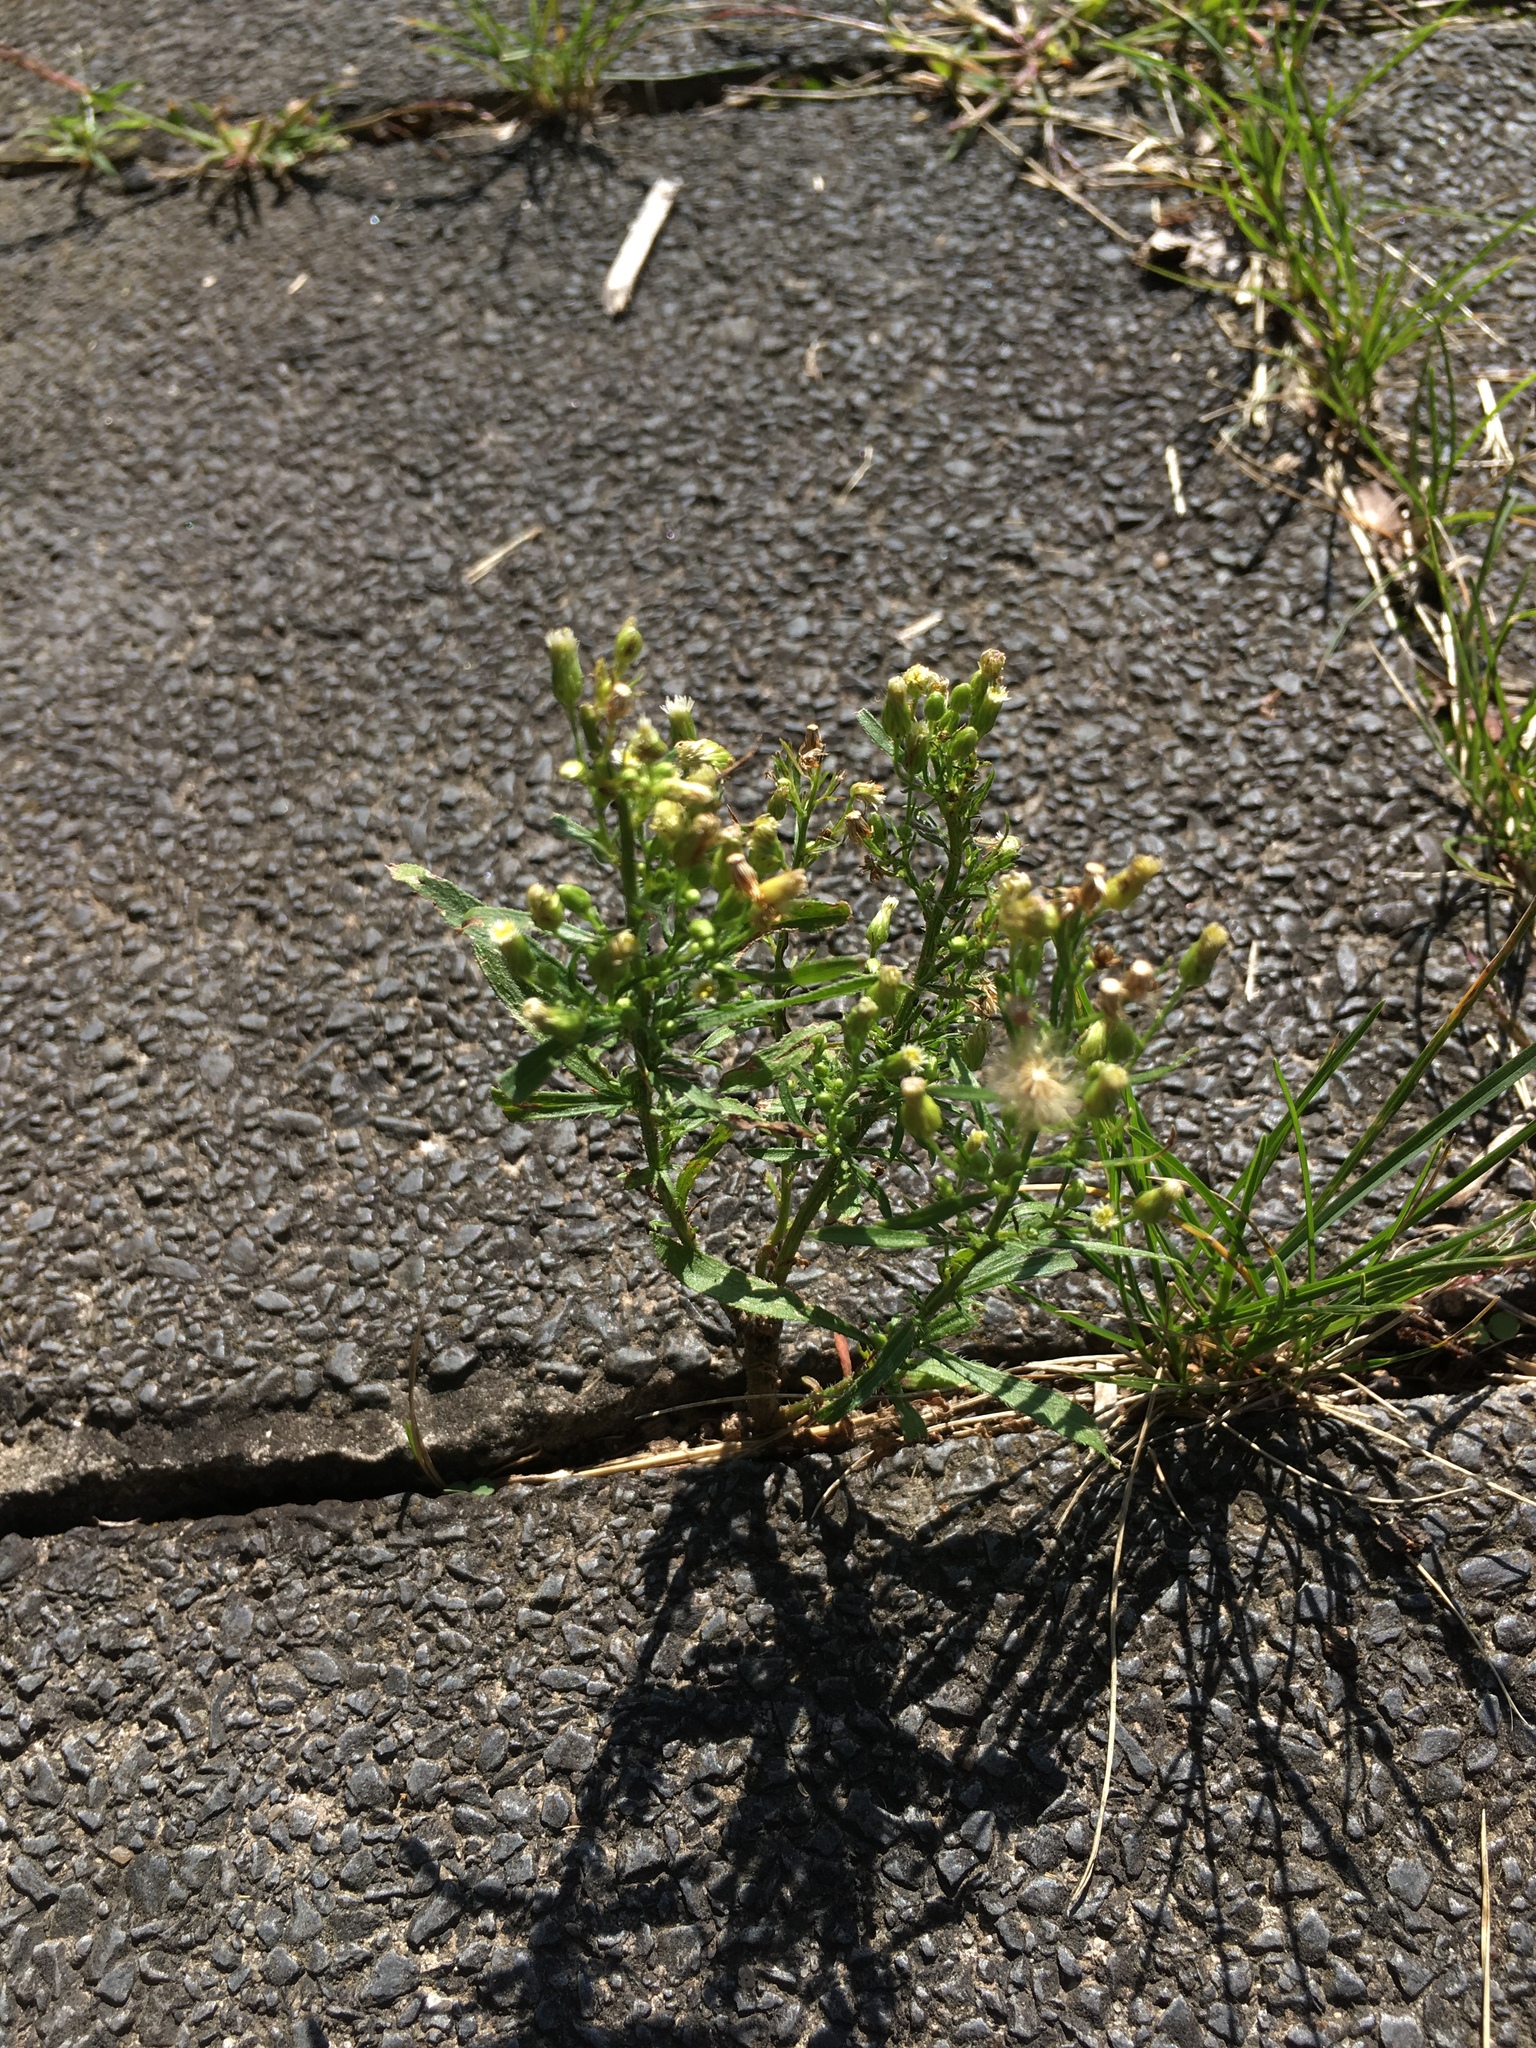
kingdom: Plantae
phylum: Tracheophyta
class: Magnoliopsida
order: Asterales
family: Asteraceae
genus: Erigeron
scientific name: Erigeron canadensis
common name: Canadian fleabane
